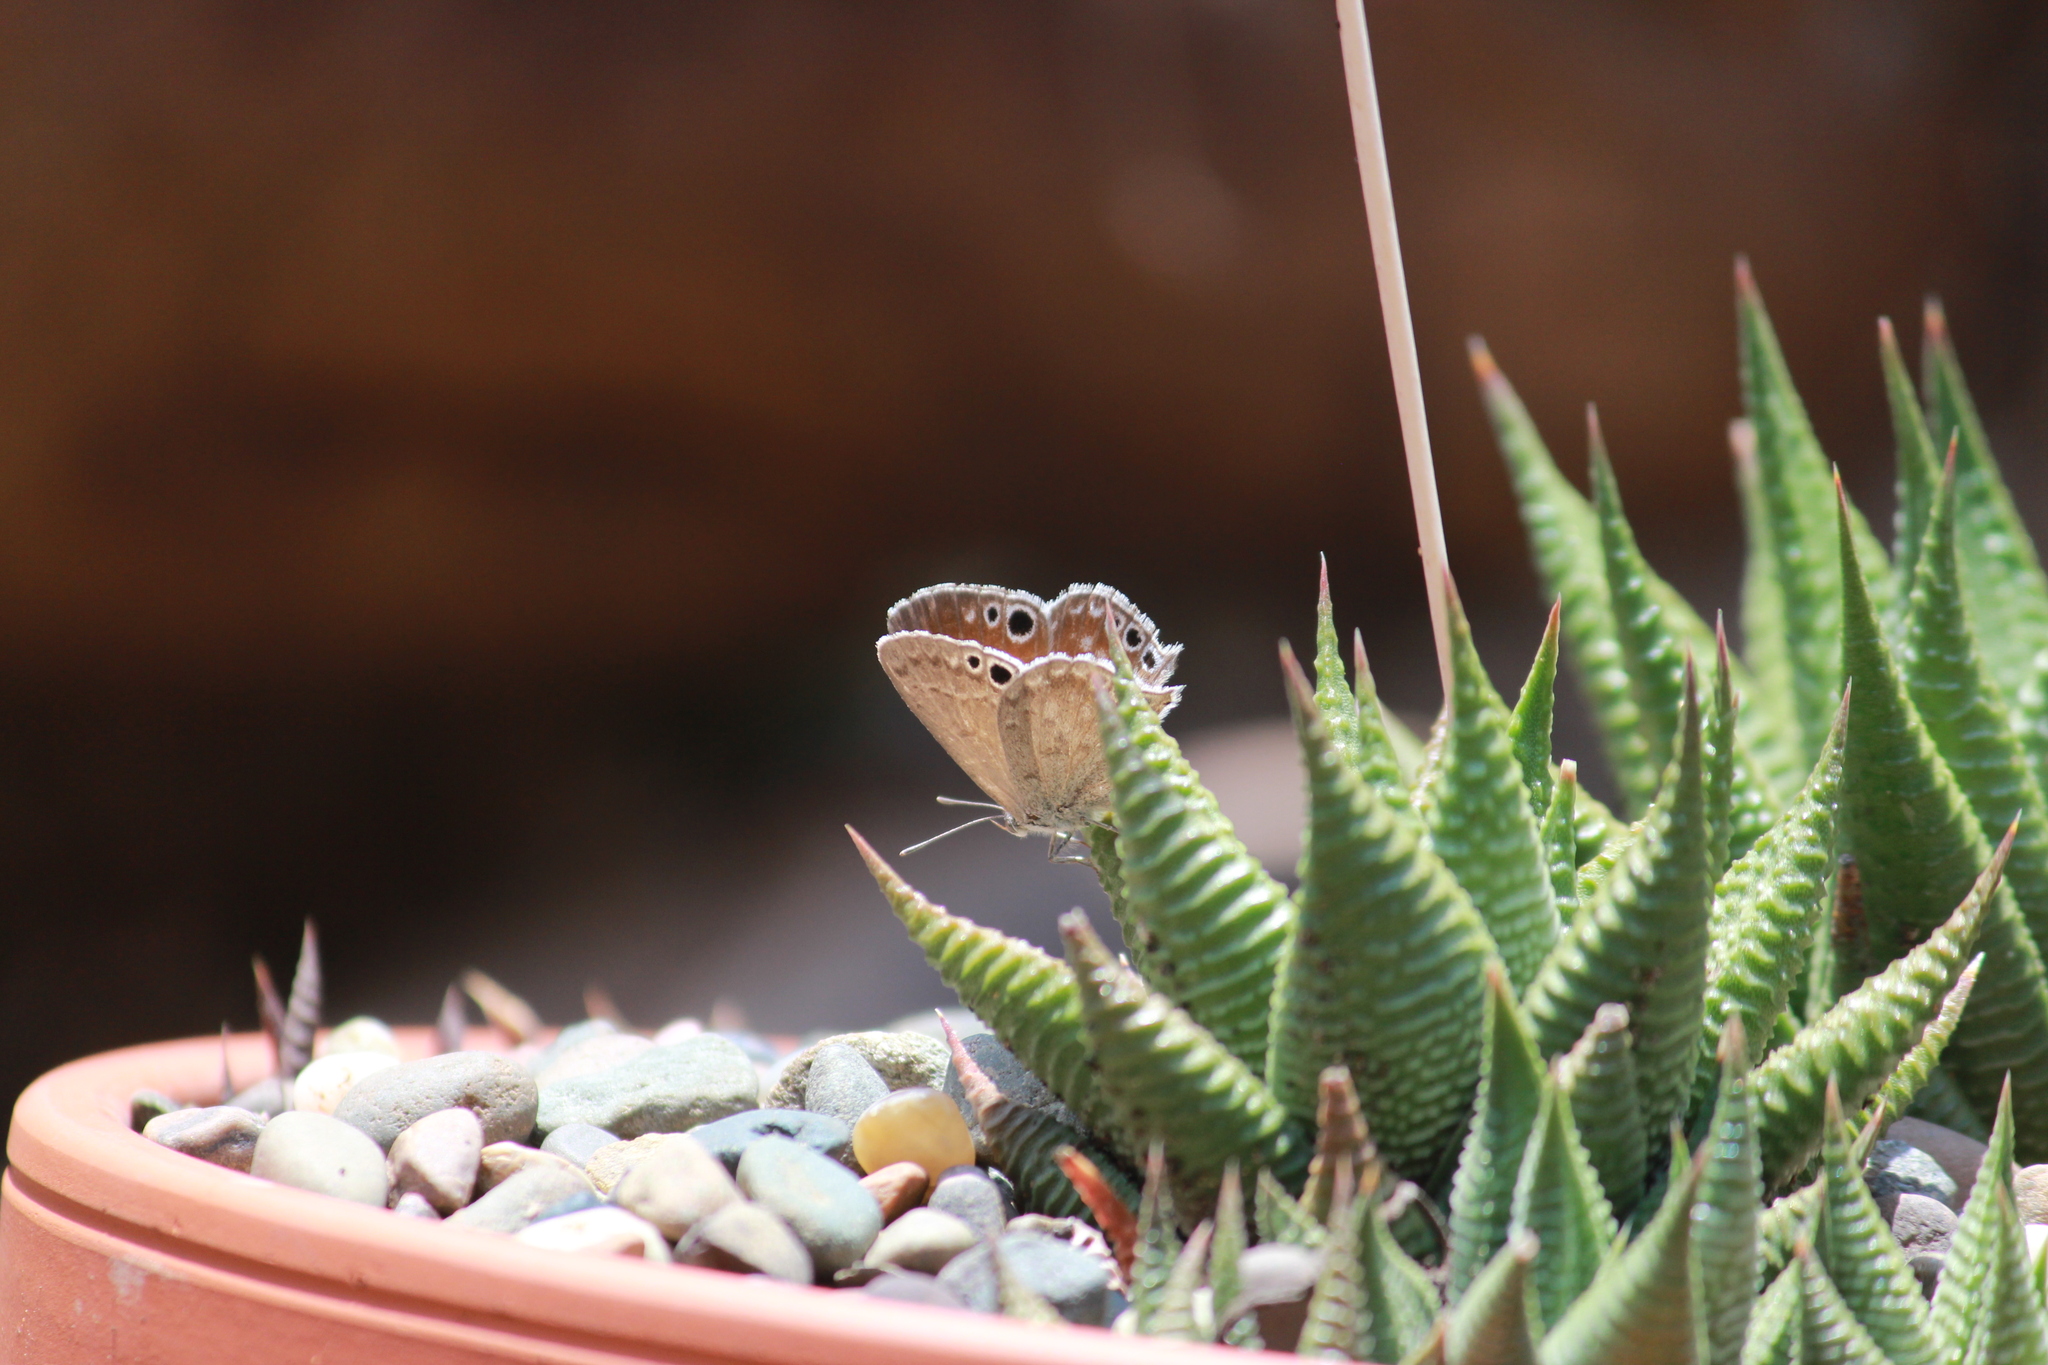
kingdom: Animalia
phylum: Arthropoda
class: Insecta
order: Lepidoptera
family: Lycaenidae
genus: Leptomyrina
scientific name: Leptomyrina gorgias
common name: Common black-eye
